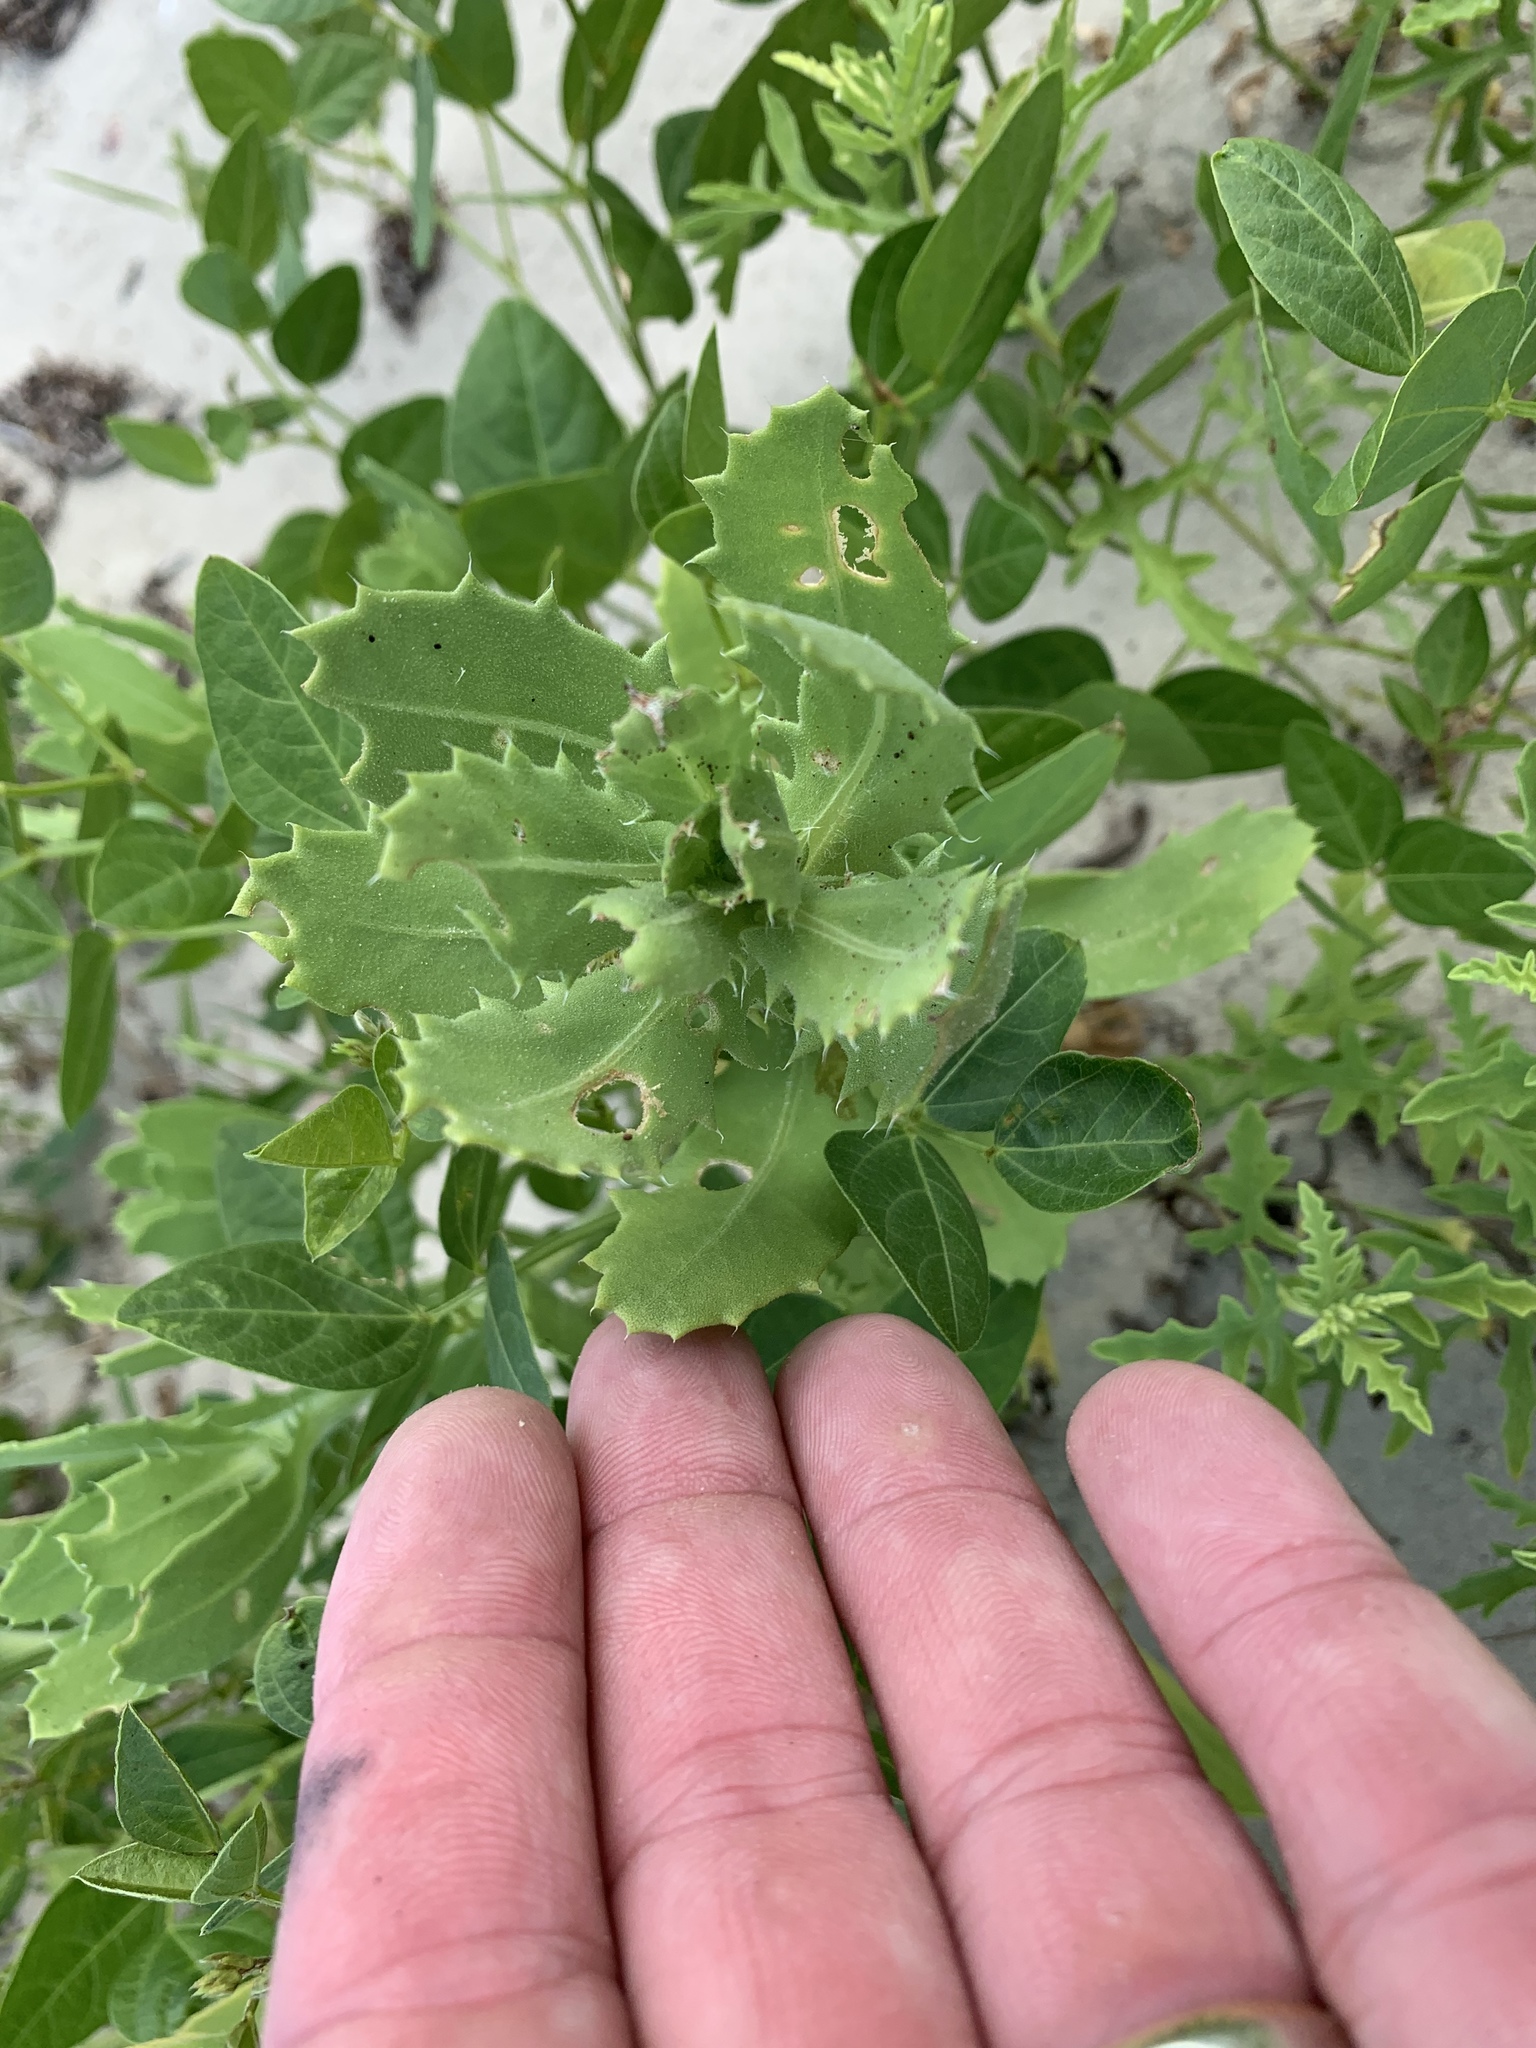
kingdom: Plantae
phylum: Tracheophyta
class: Magnoliopsida
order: Asterales
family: Asteraceae
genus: Rayjacksonia
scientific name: Rayjacksonia phyllocephala
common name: Gulf coast camphor daisy
